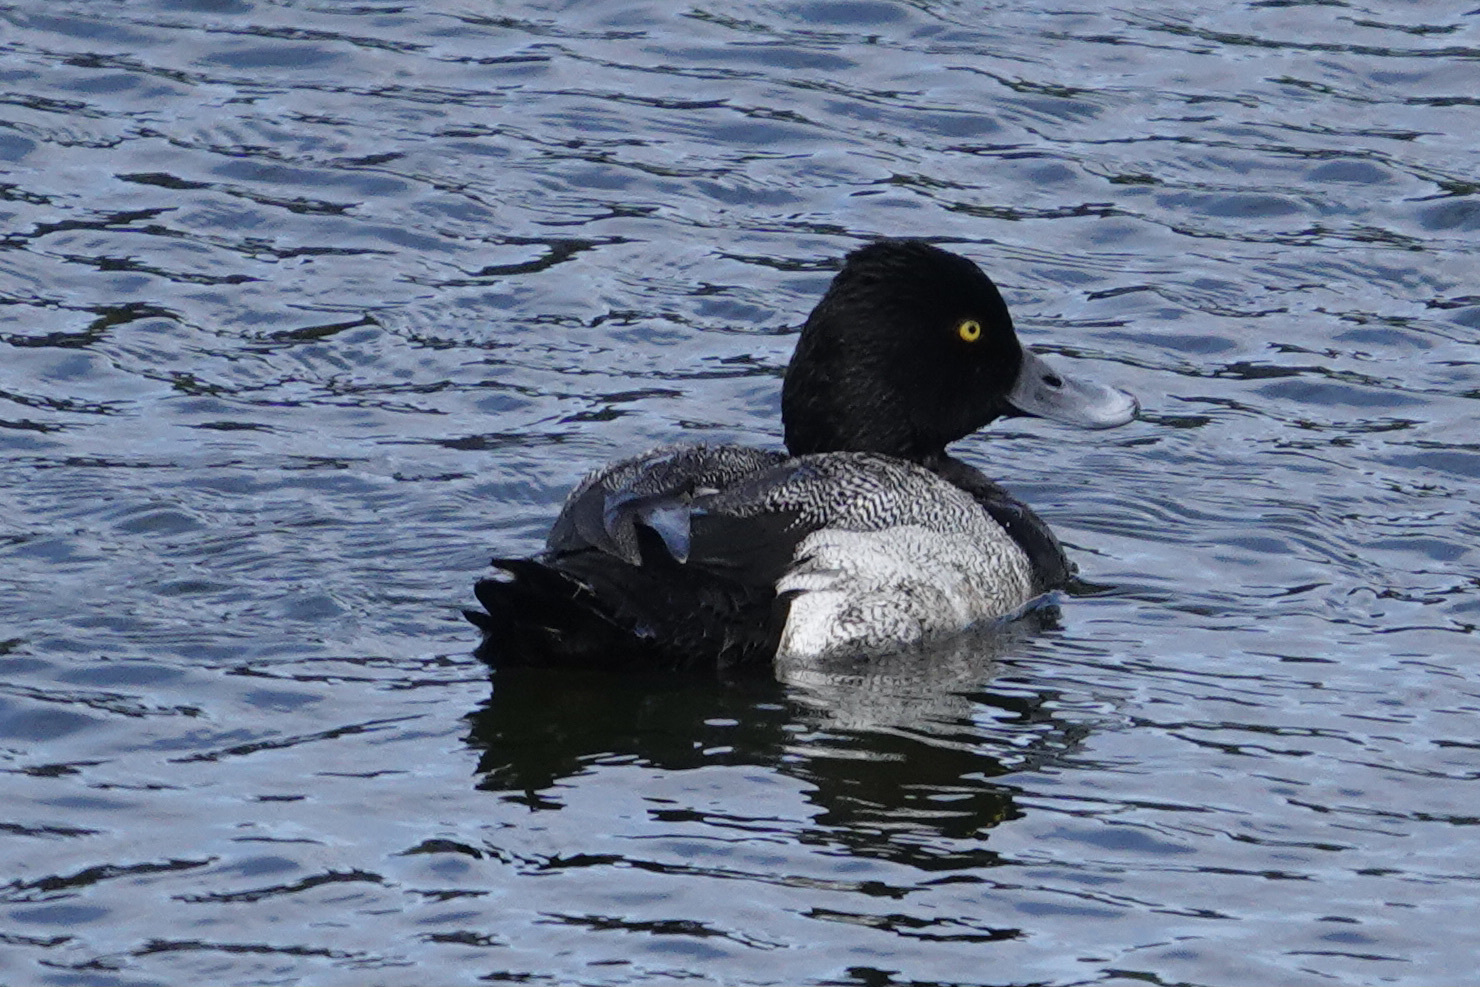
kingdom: Animalia
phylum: Chordata
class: Aves
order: Anseriformes
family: Anatidae
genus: Aythya
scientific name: Aythya affinis
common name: Lesser scaup
